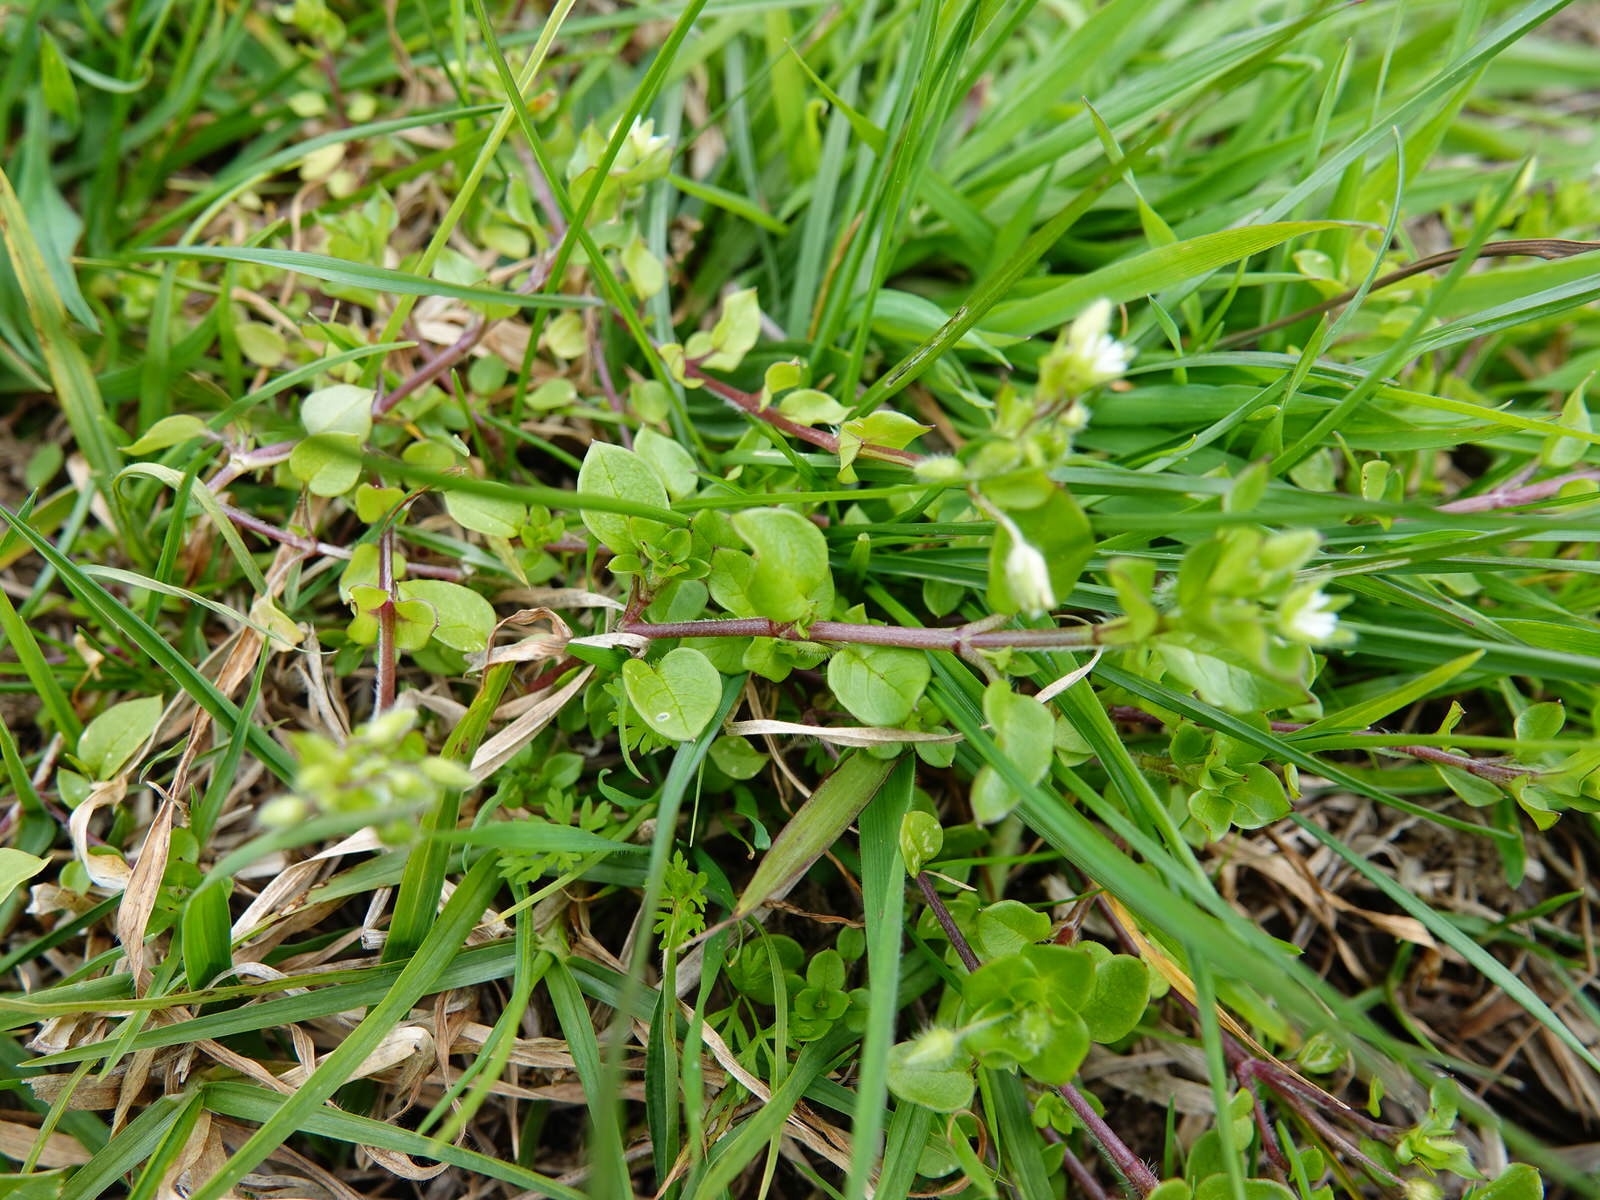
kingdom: Plantae
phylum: Tracheophyta
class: Magnoliopsida
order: Caryophyllales
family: Caryophyllaceae
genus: Stellaria
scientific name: Stellaria media
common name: Common chickweed
